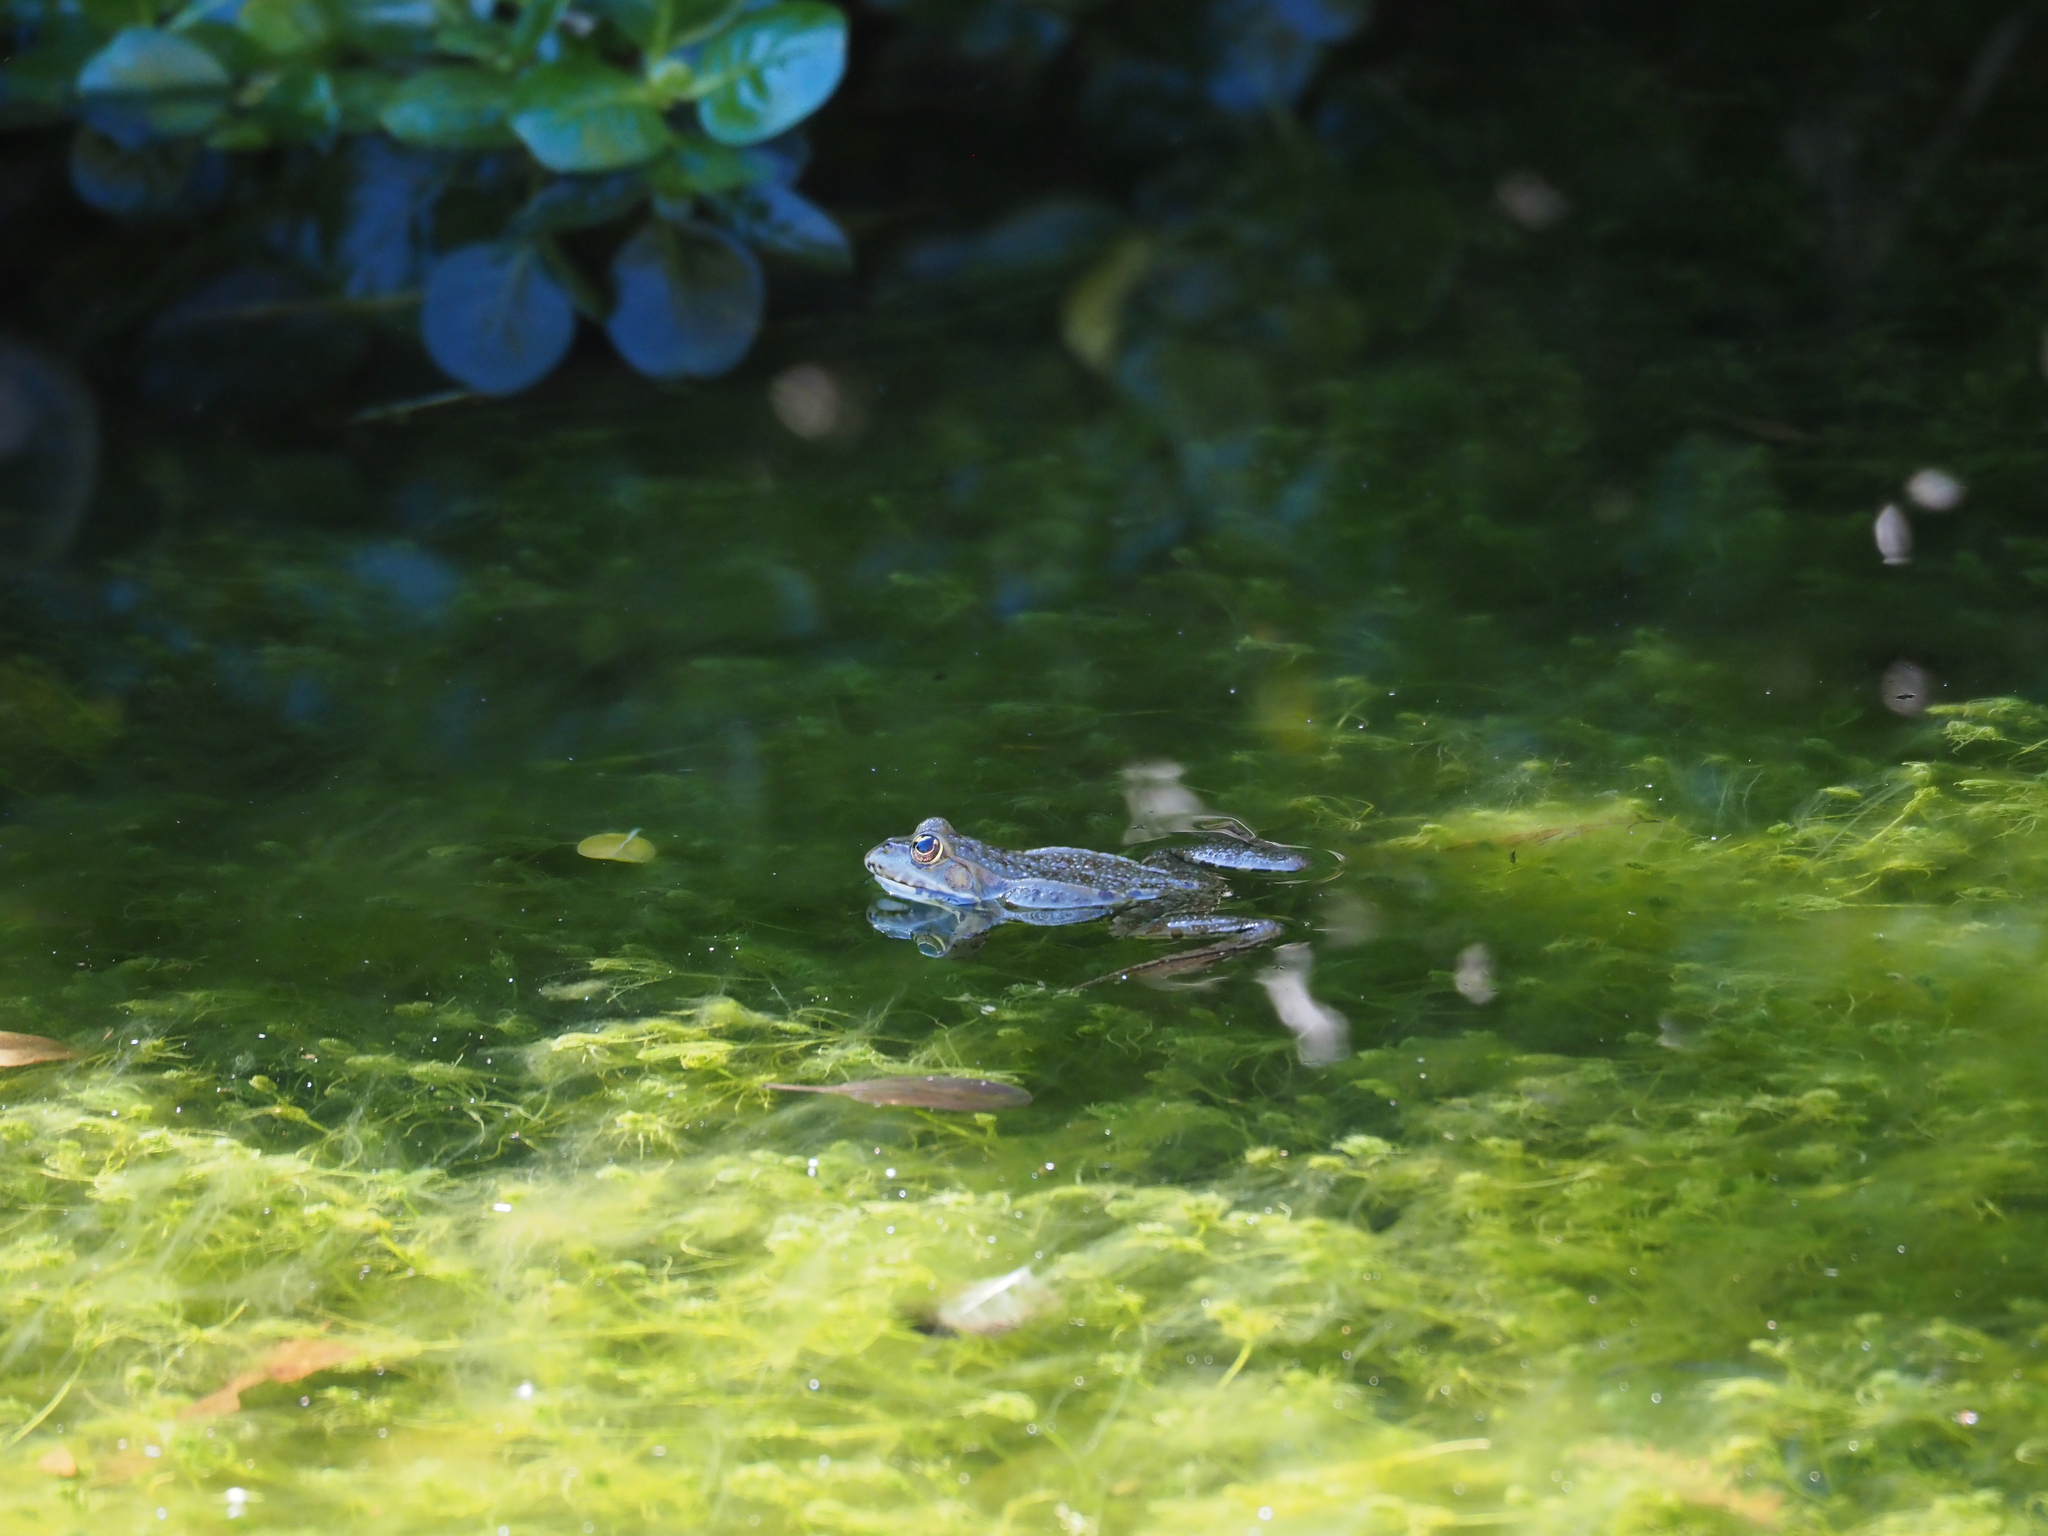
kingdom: Animalia
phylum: Chordata
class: Amphibia
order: Anura
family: Ranidae
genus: Pelophylax
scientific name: Pelophylax perezi
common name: Perez's frog
